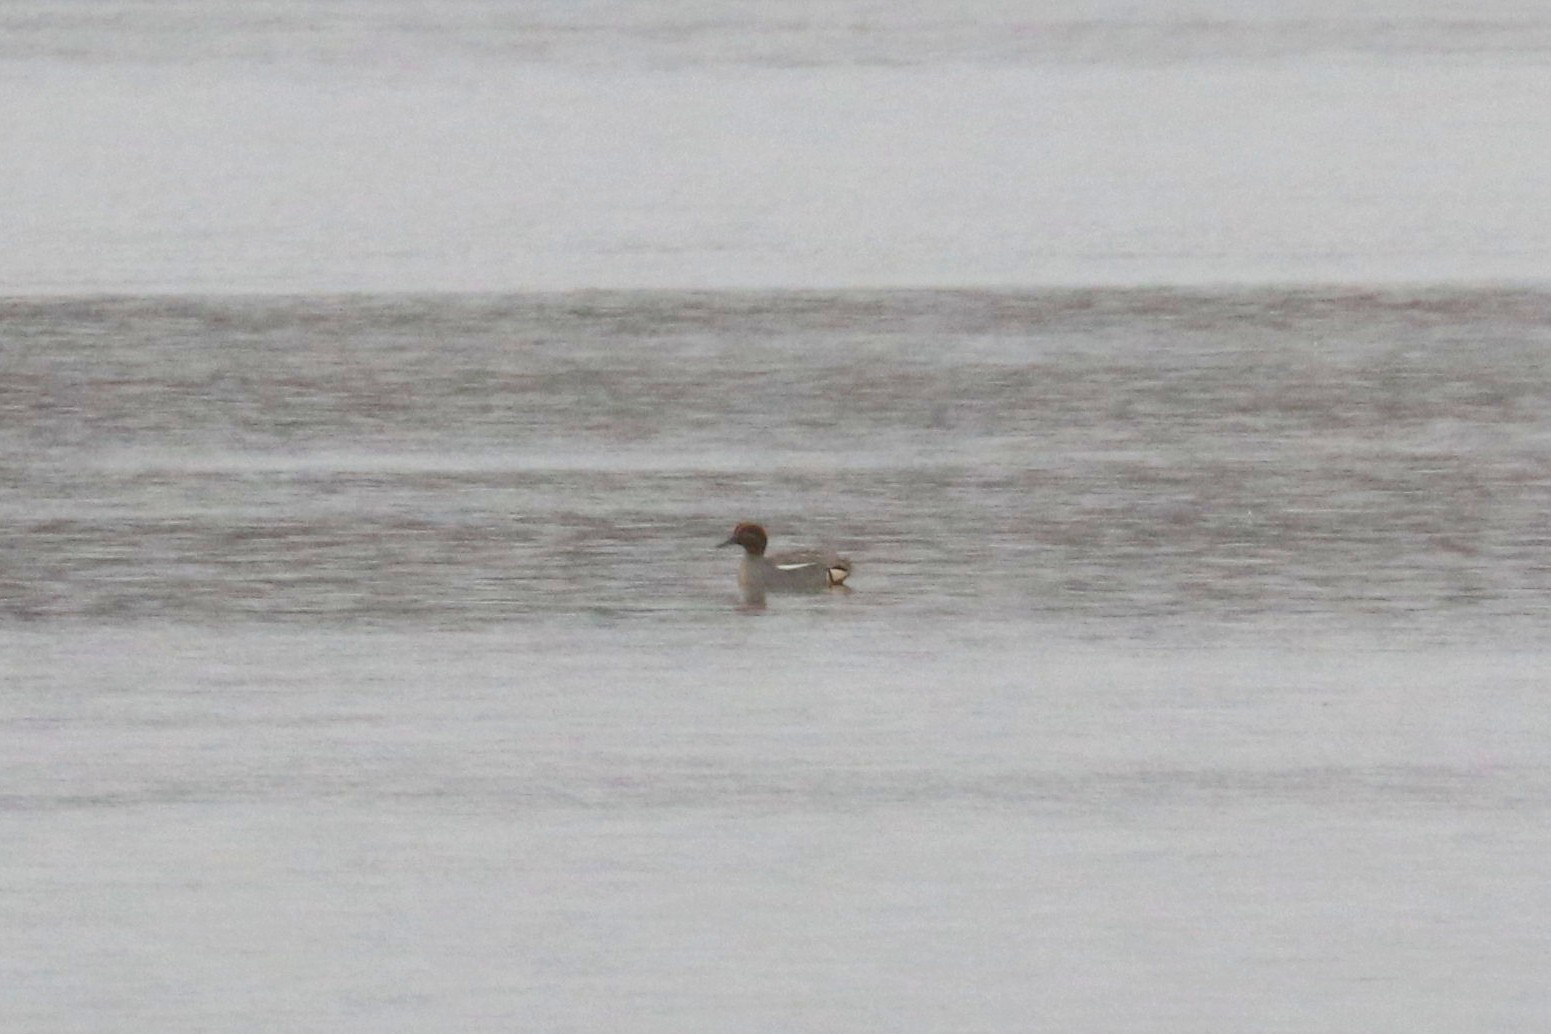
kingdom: Animalia
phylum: Chordata
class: Aves
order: Anseriformes
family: Anatidae
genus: Anas
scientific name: Anas crecca
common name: Eurasian teal
